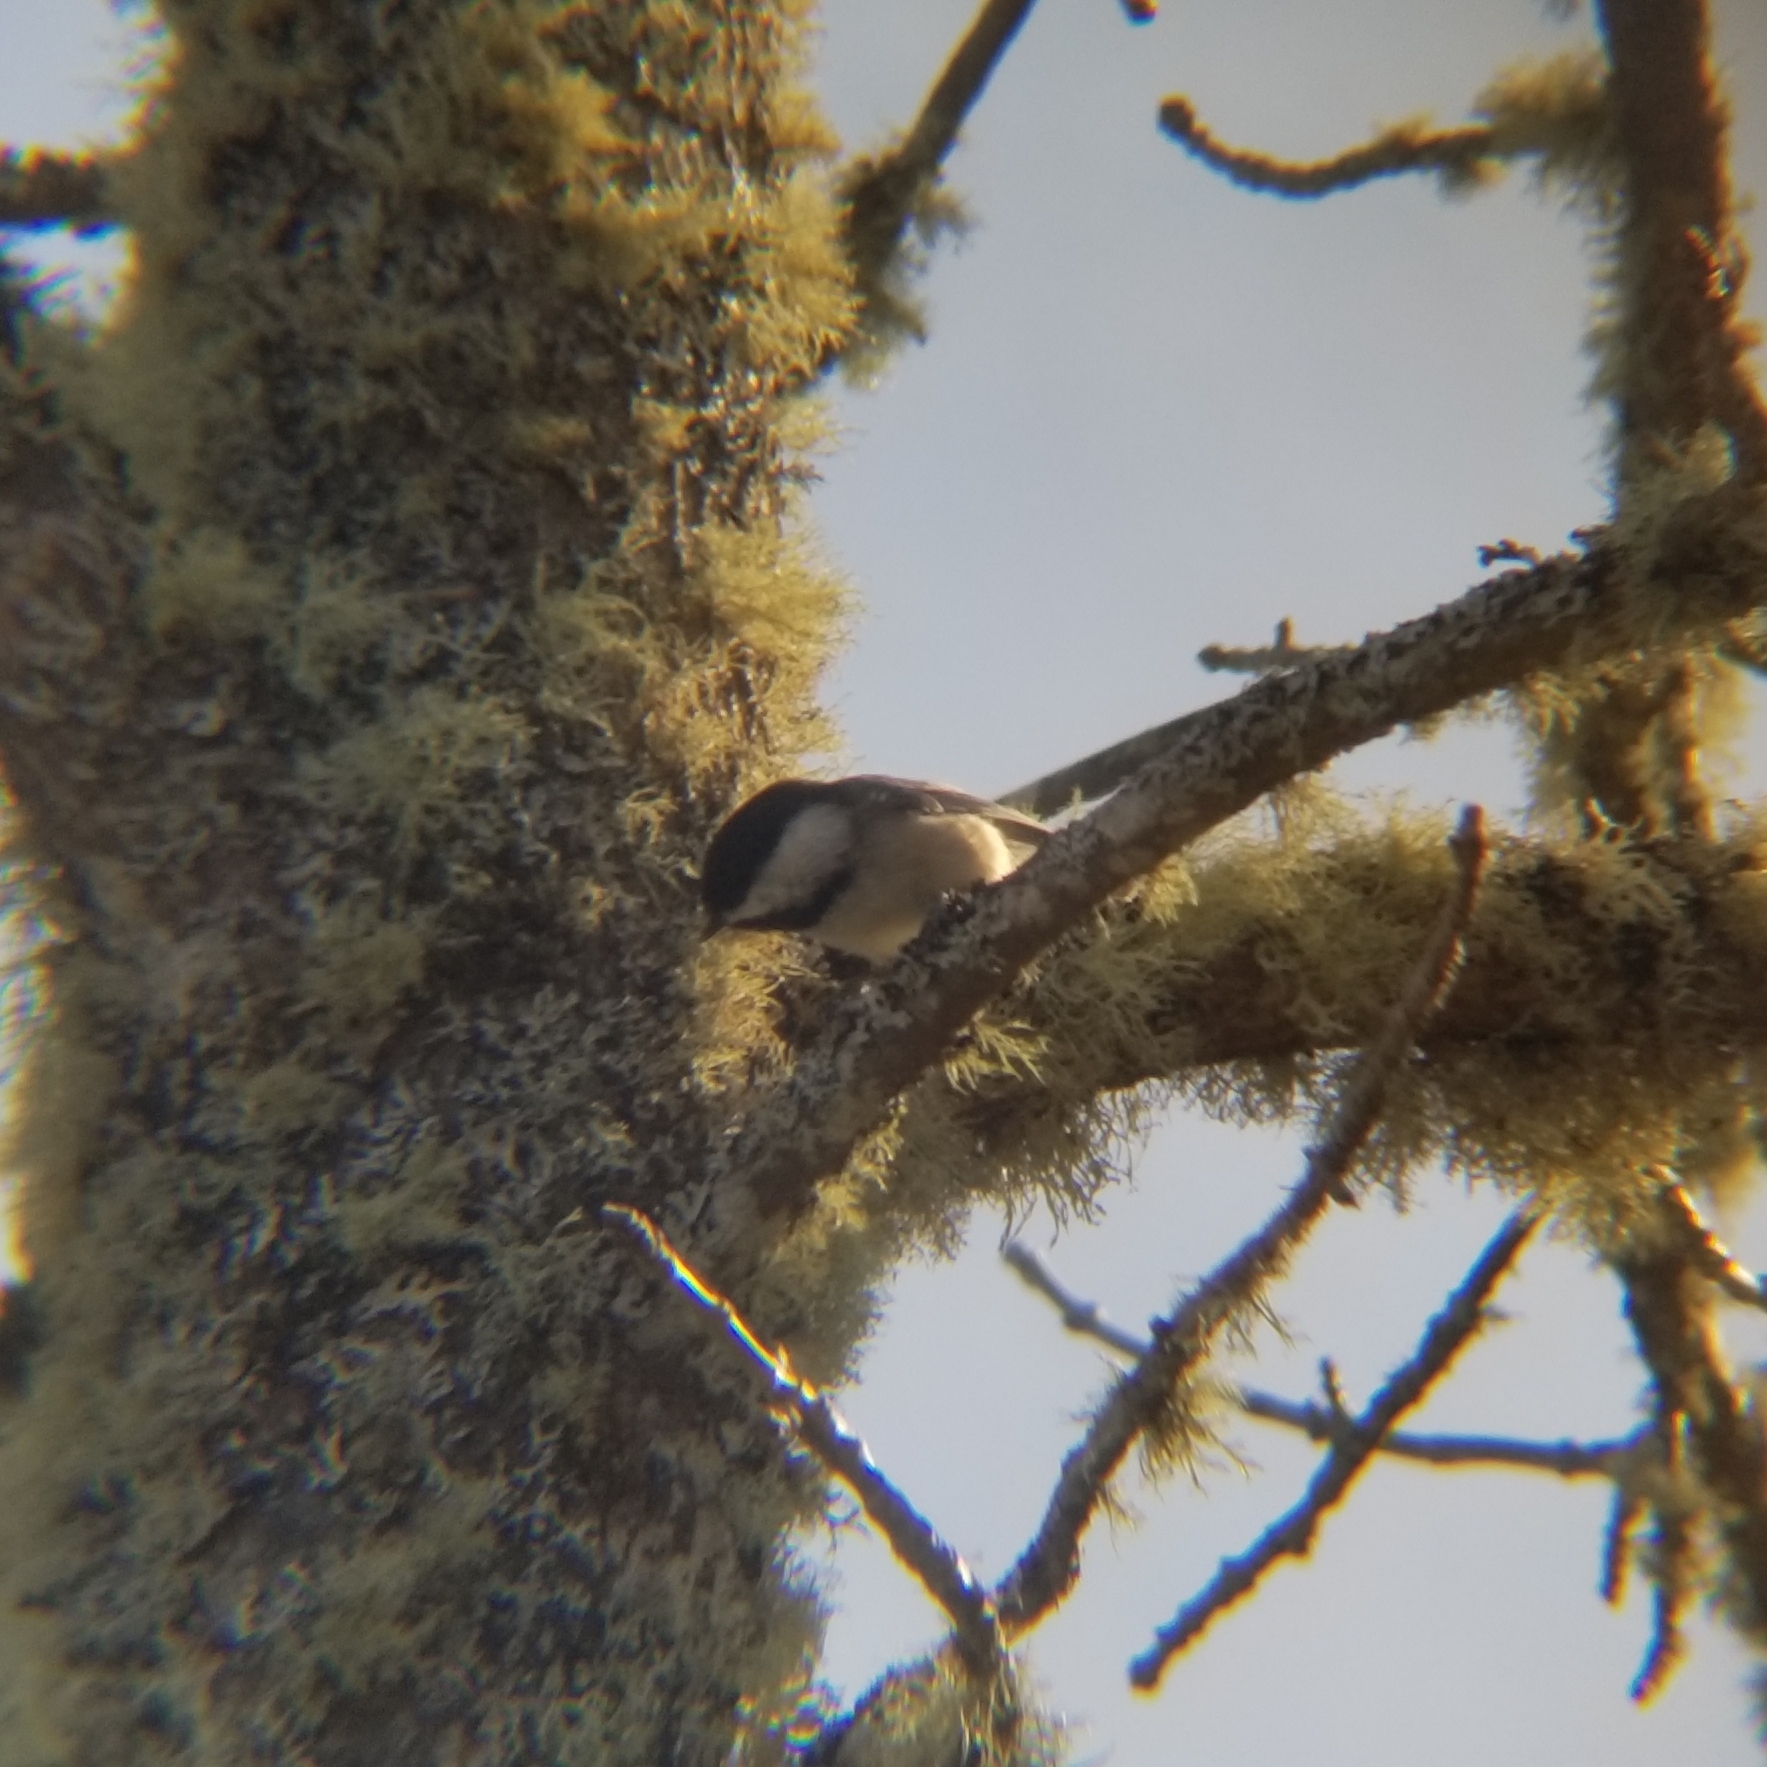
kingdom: Animalia
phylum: Chordata
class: Aves
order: Passeriformes
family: Paridae
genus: Poecile
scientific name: Poecile atricapillus
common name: Black-capped chickadee
